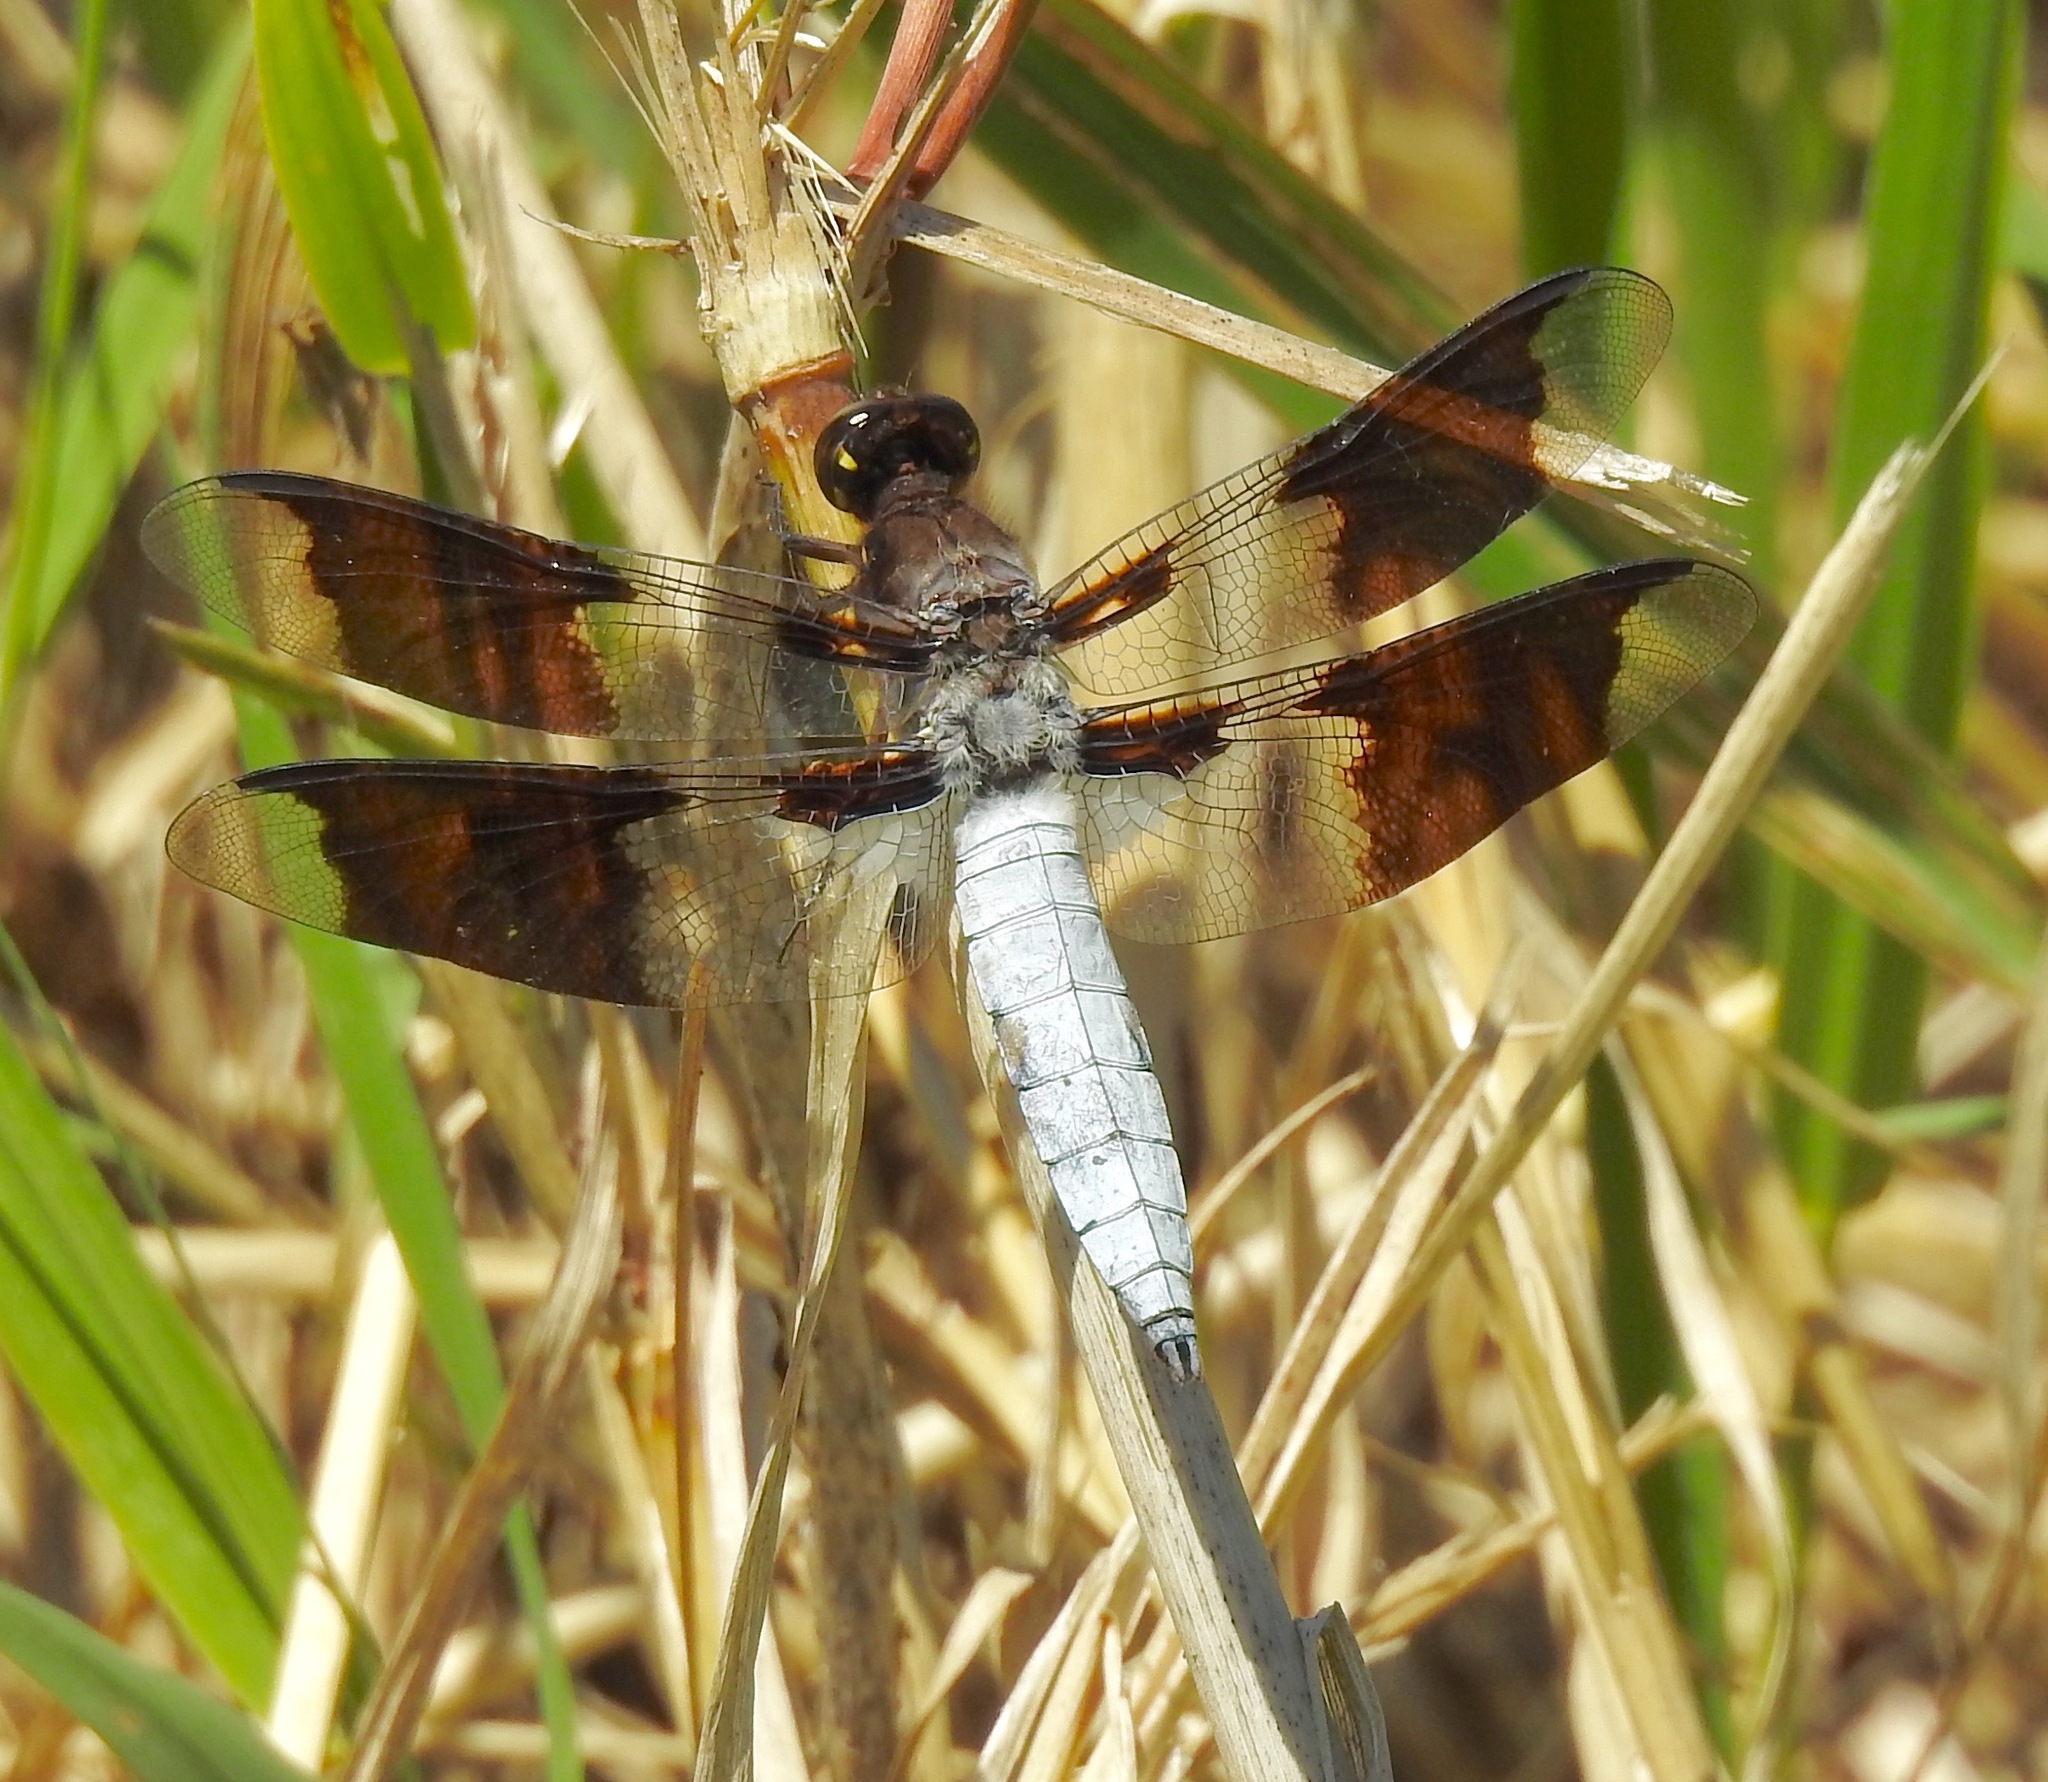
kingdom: Animalia
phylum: Arthropoda
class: Insecta
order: Odonata
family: Libellulidae
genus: Plathemis
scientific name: Plathemis lydia
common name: Common whitetail
